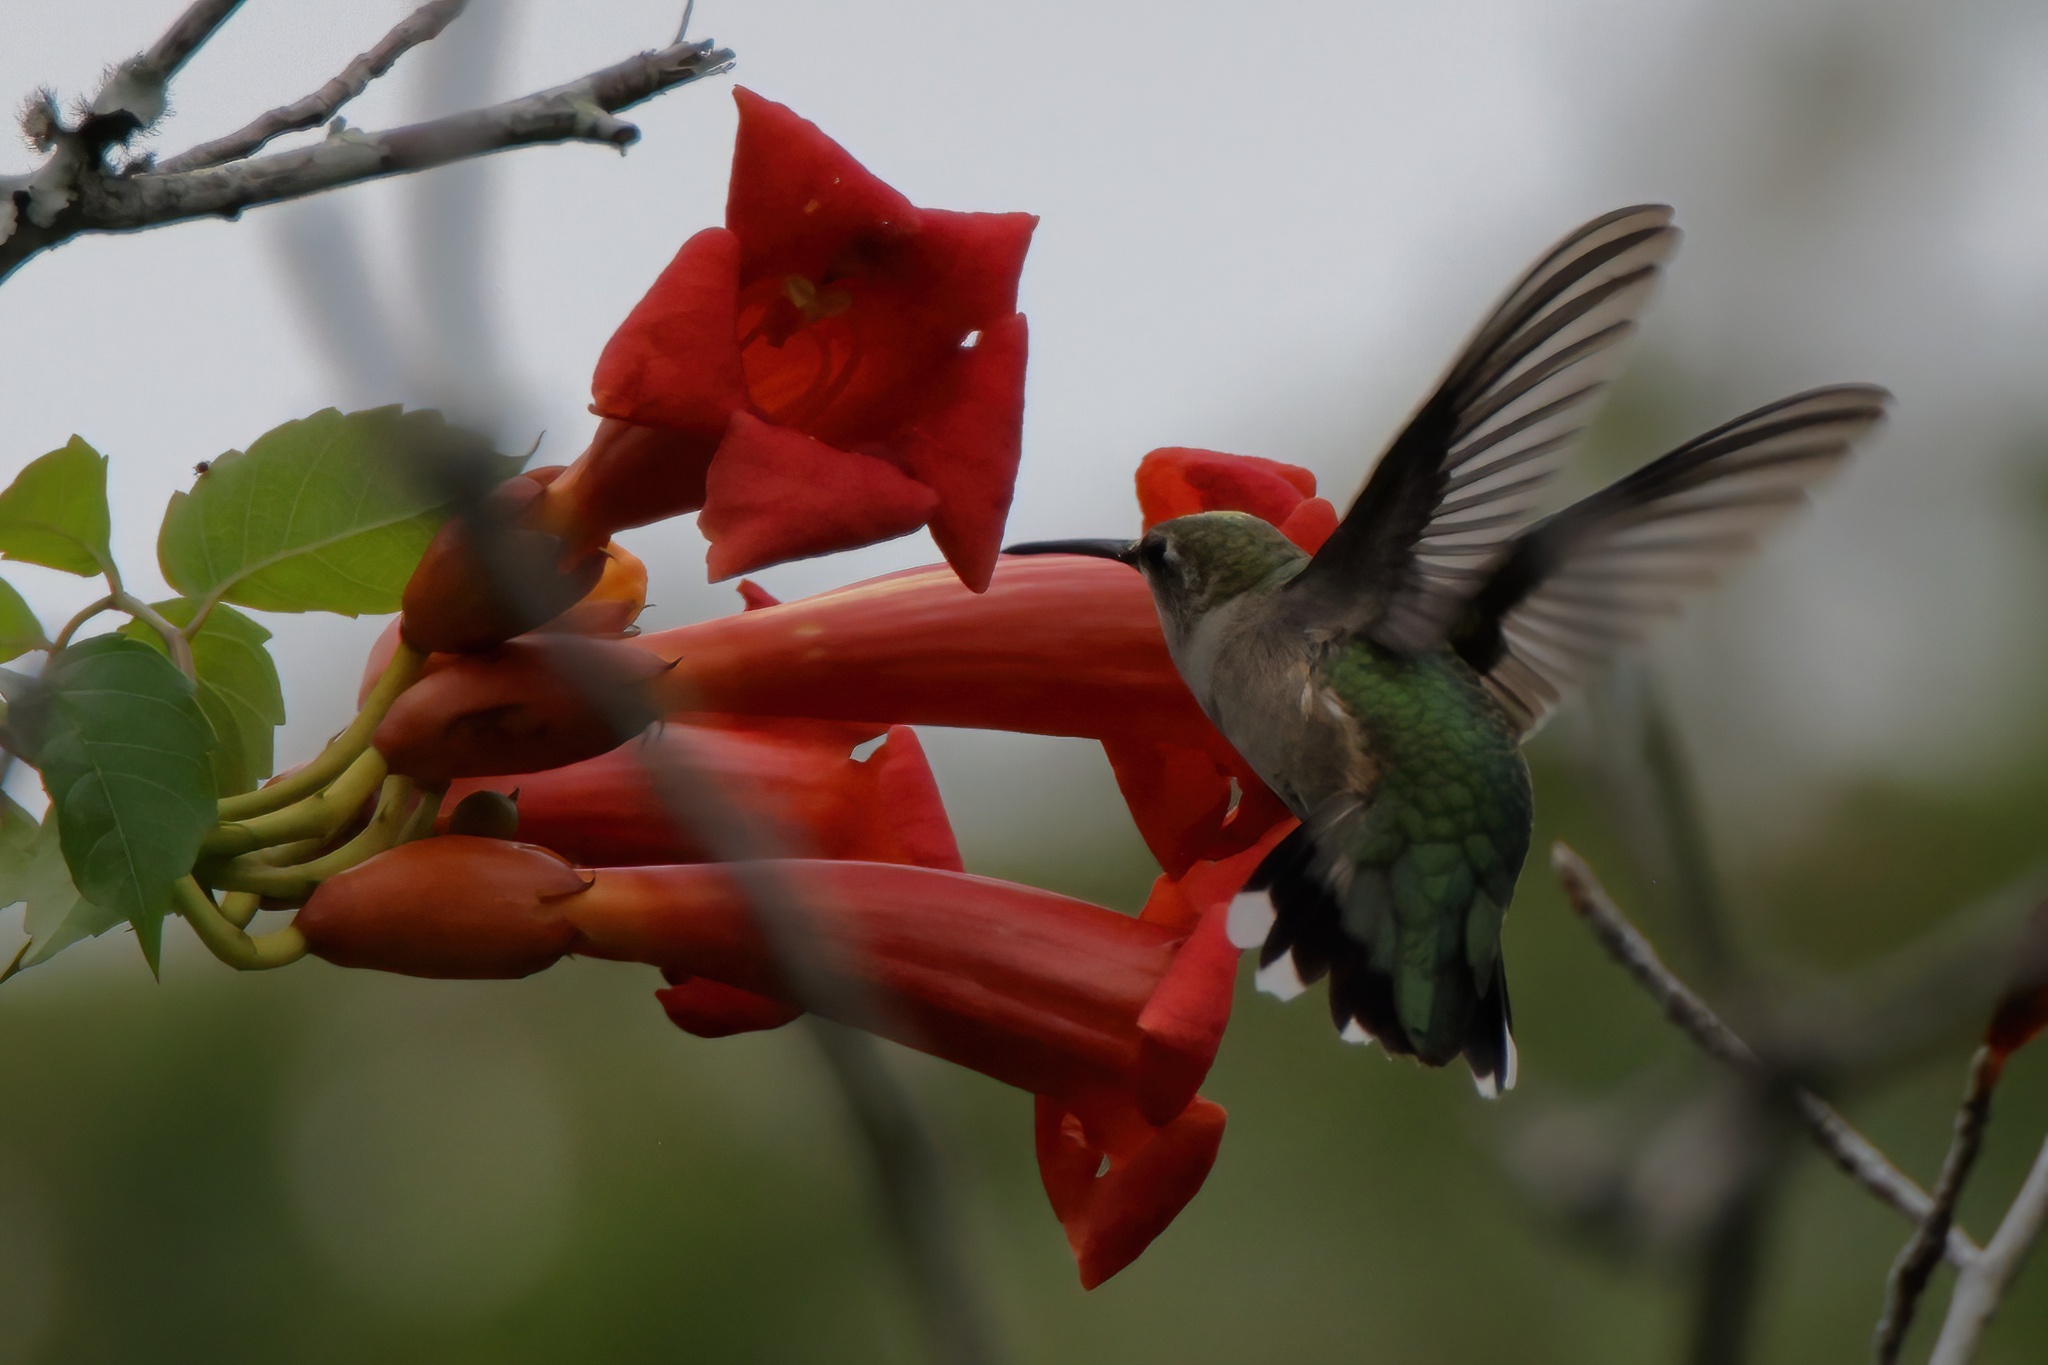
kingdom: Animalia
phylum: Chordata
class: Aves
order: Apodiformes
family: Trochilidae
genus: Archilochus
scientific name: Archilochus colubris
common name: Ruby-throated hummingbird
